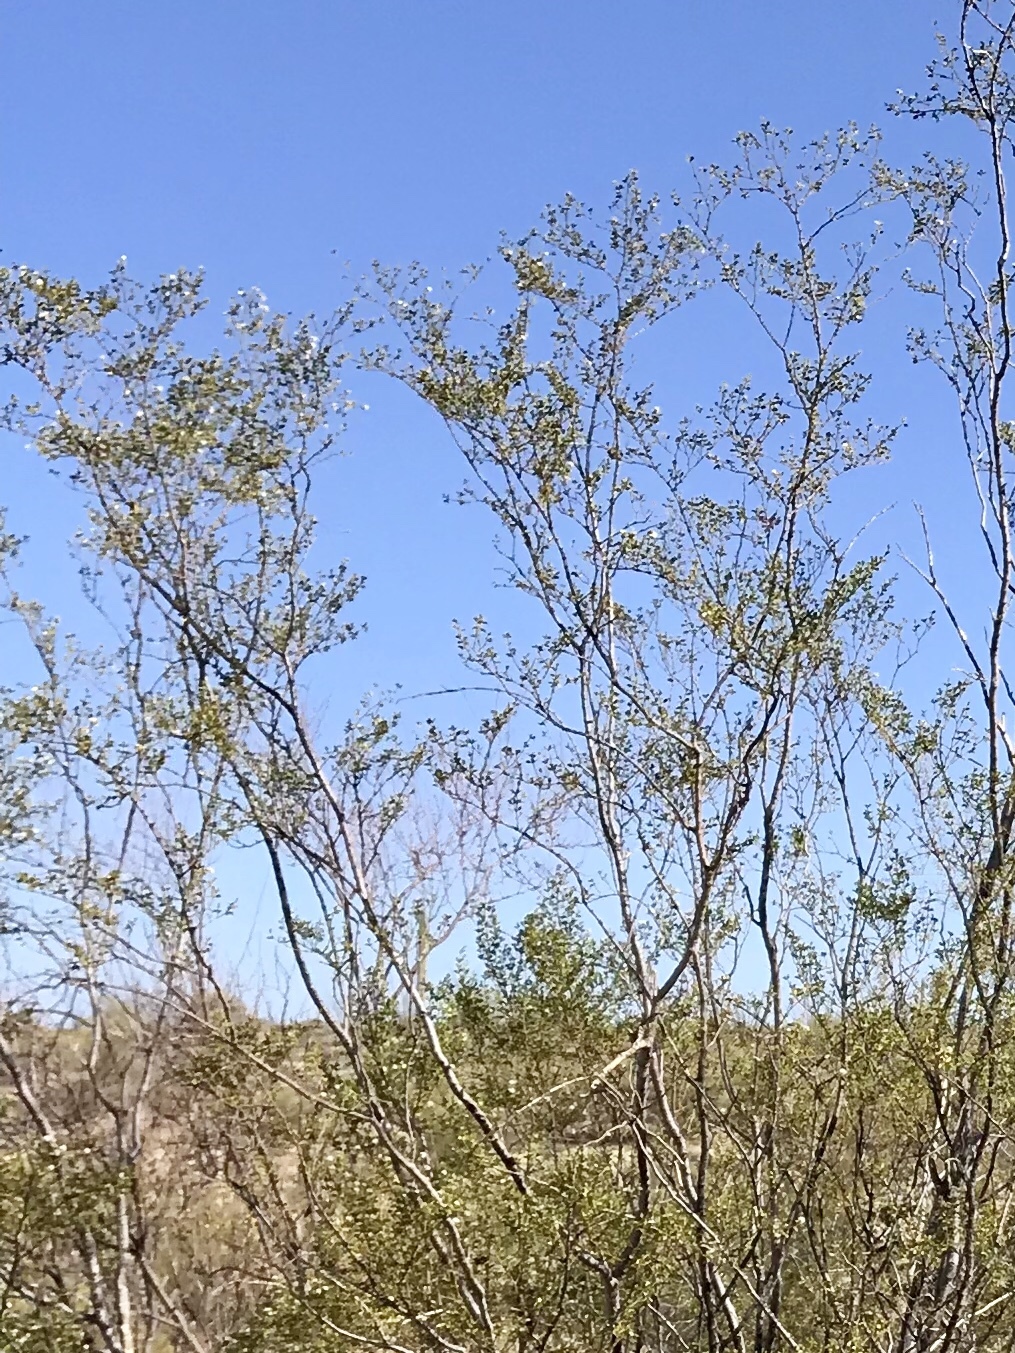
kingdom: Plantae
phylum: Tracheophyta
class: Magnoliopsida
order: Zygophyllales
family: Zygophyllaceae
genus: Larrea
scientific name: Larrea tridentata
